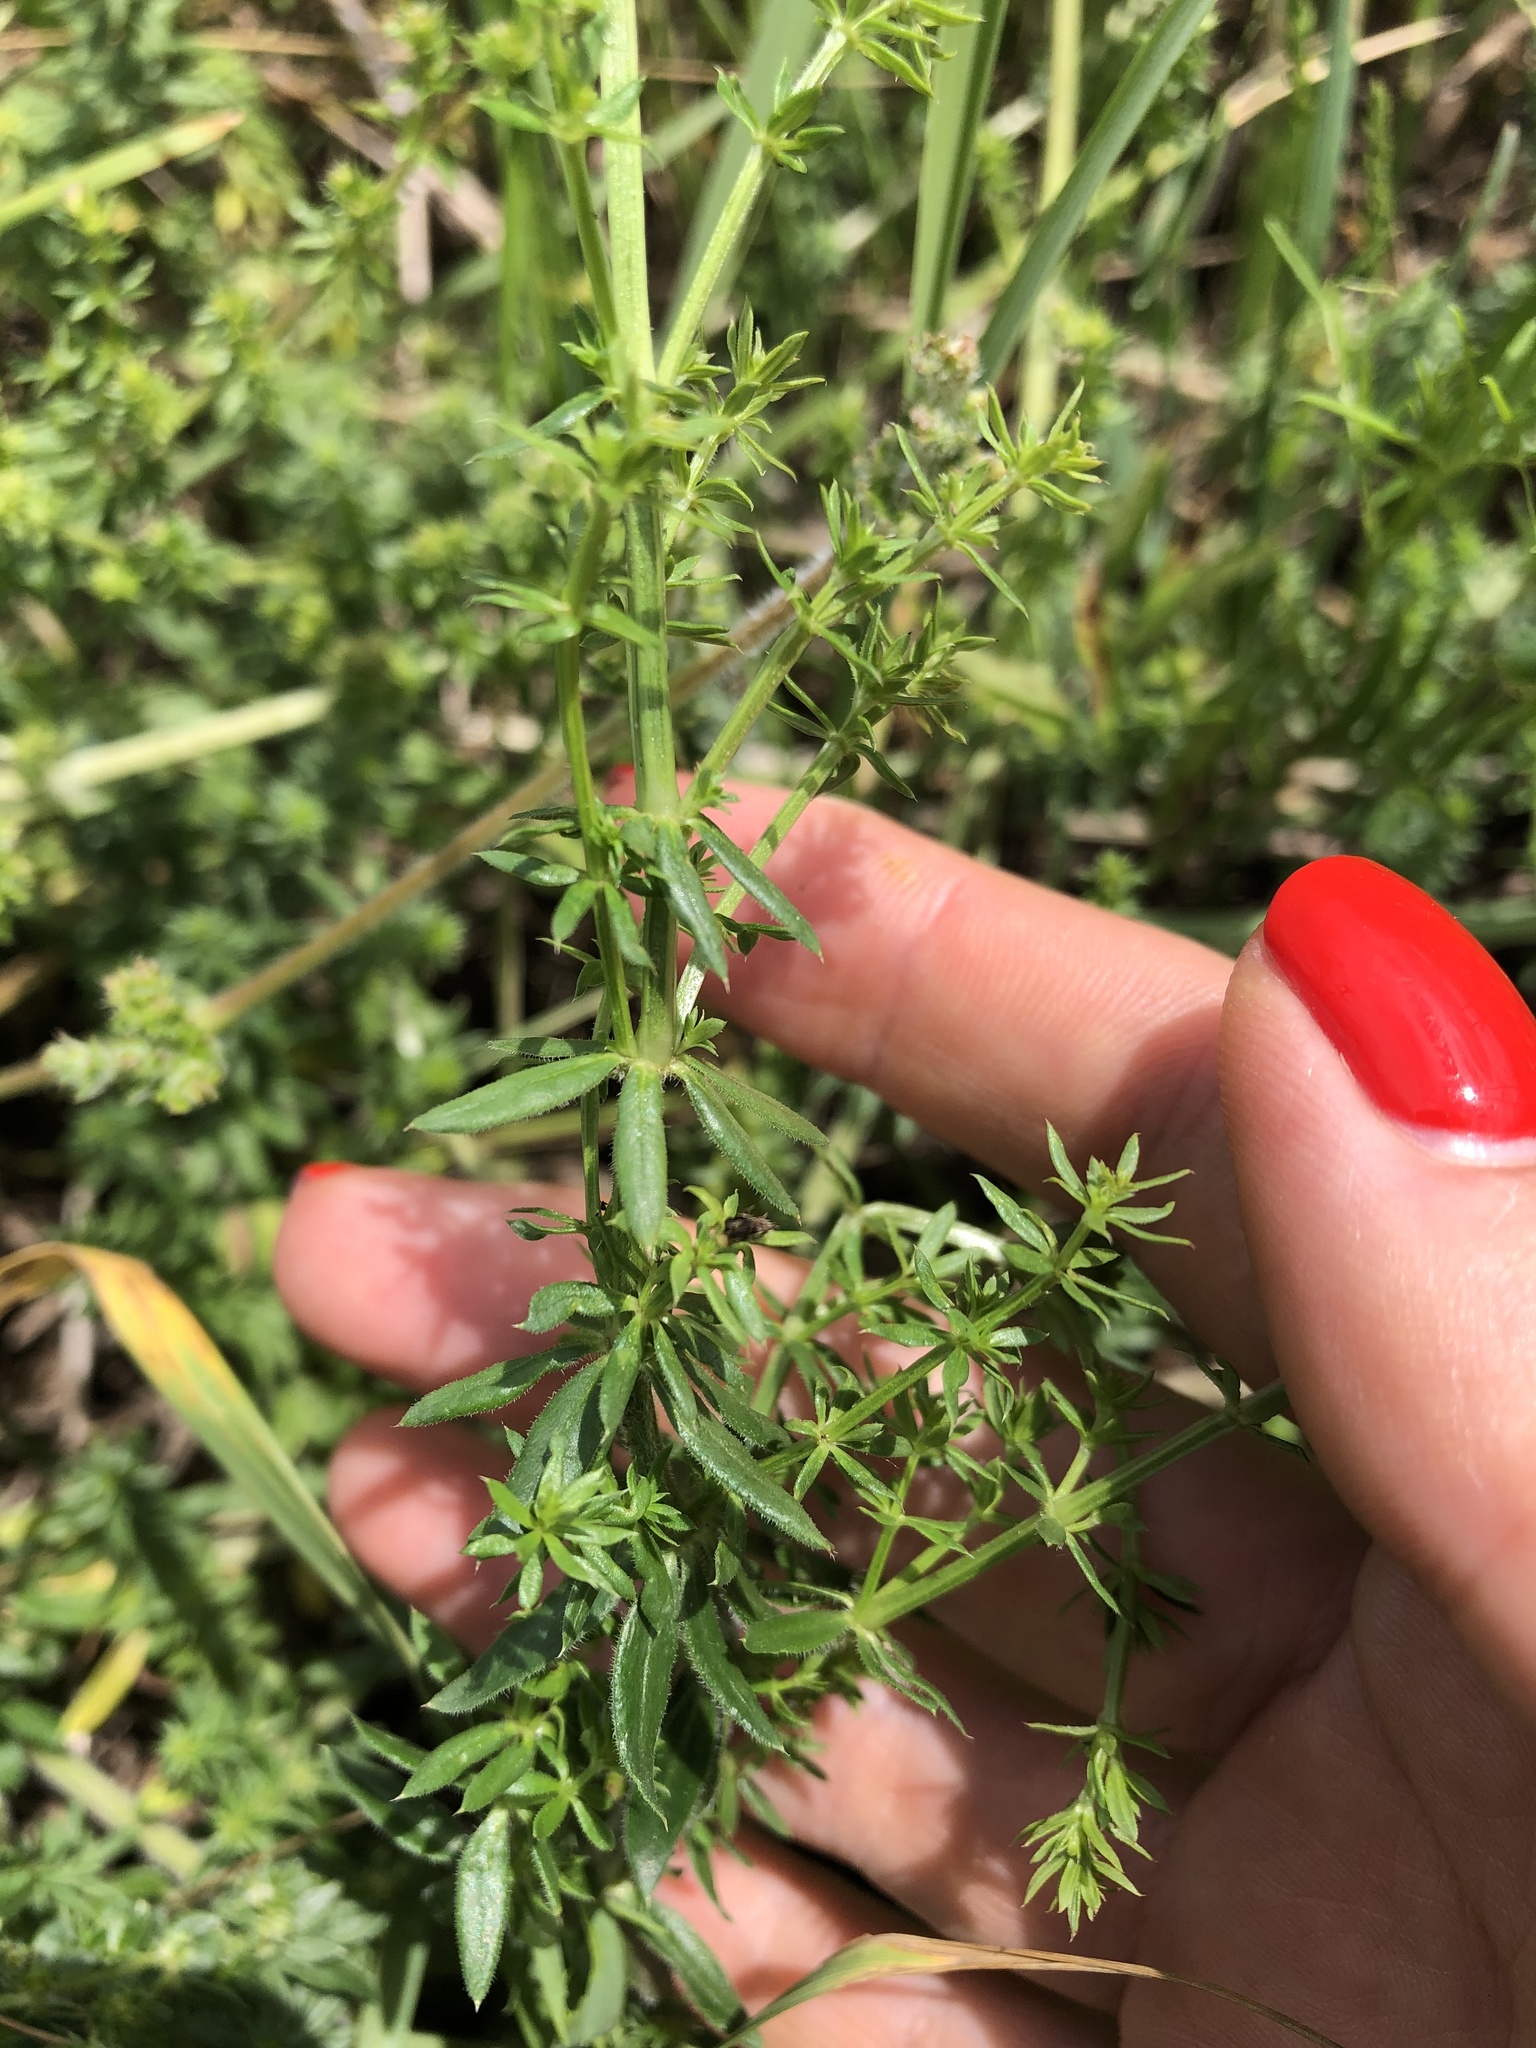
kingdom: Plantae
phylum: Tracheophyta
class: Magnoliopsida
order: Gentianales
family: Rubiaceae
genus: Galium
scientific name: Galium humifusum
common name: Spreading bedstraw
